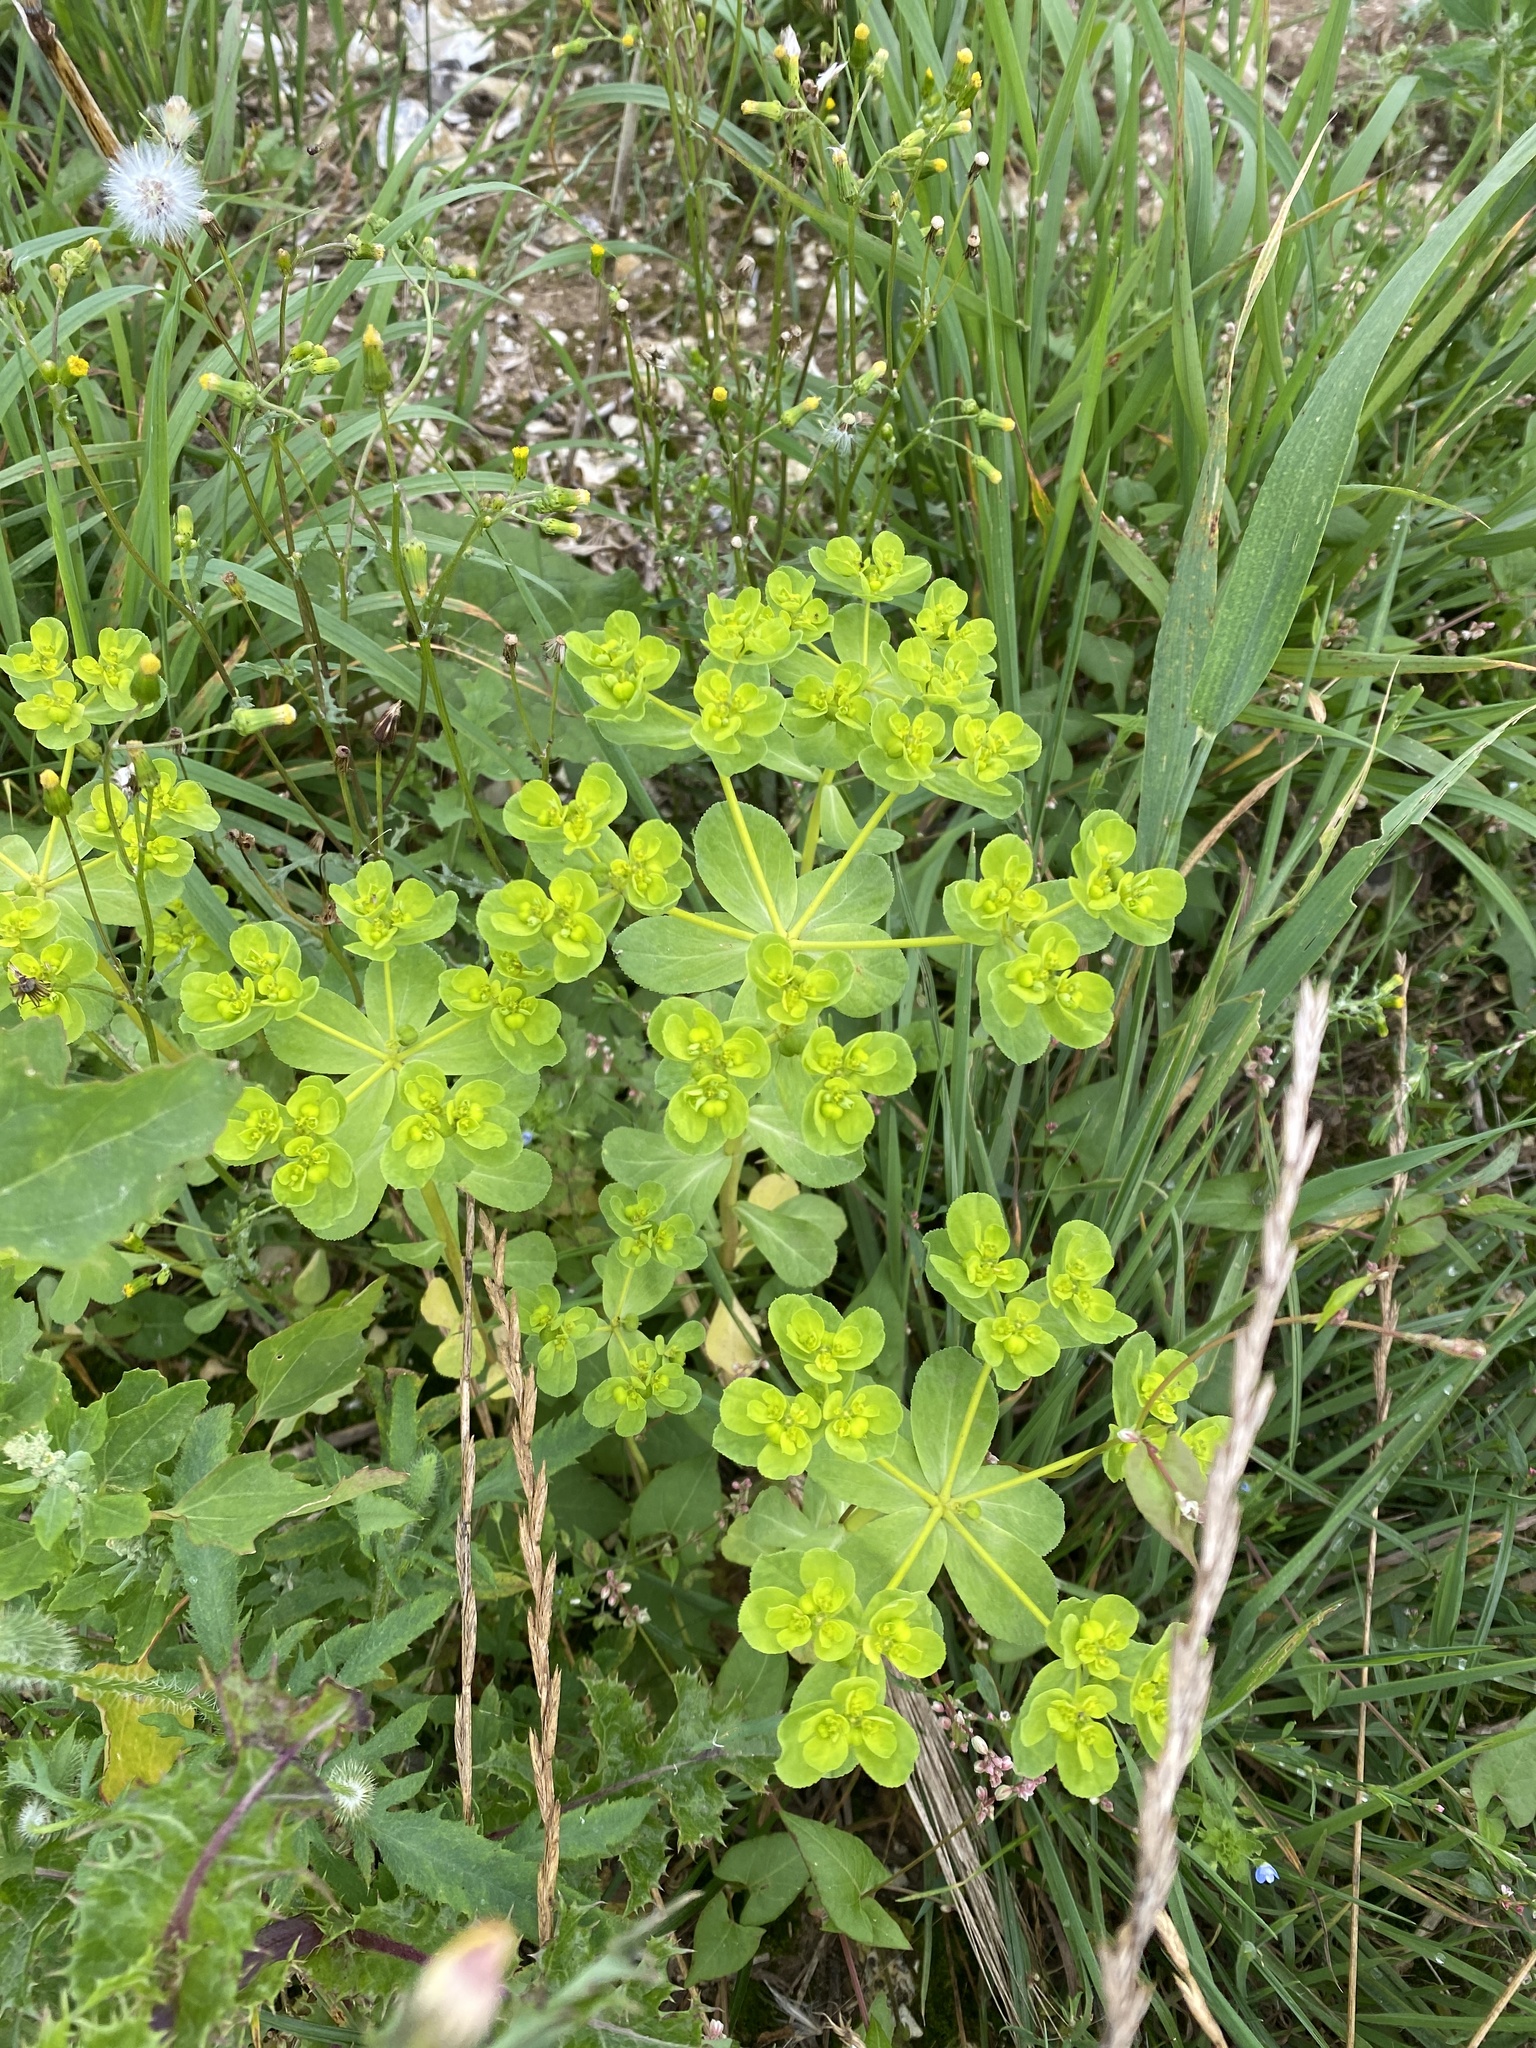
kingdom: Plantae
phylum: Tracheophyta
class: Magnoliopsida
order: Malpighiales
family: Euphorbiaceae
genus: Euphorbia
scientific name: Euphorbia helioscopia
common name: Sun spurge
